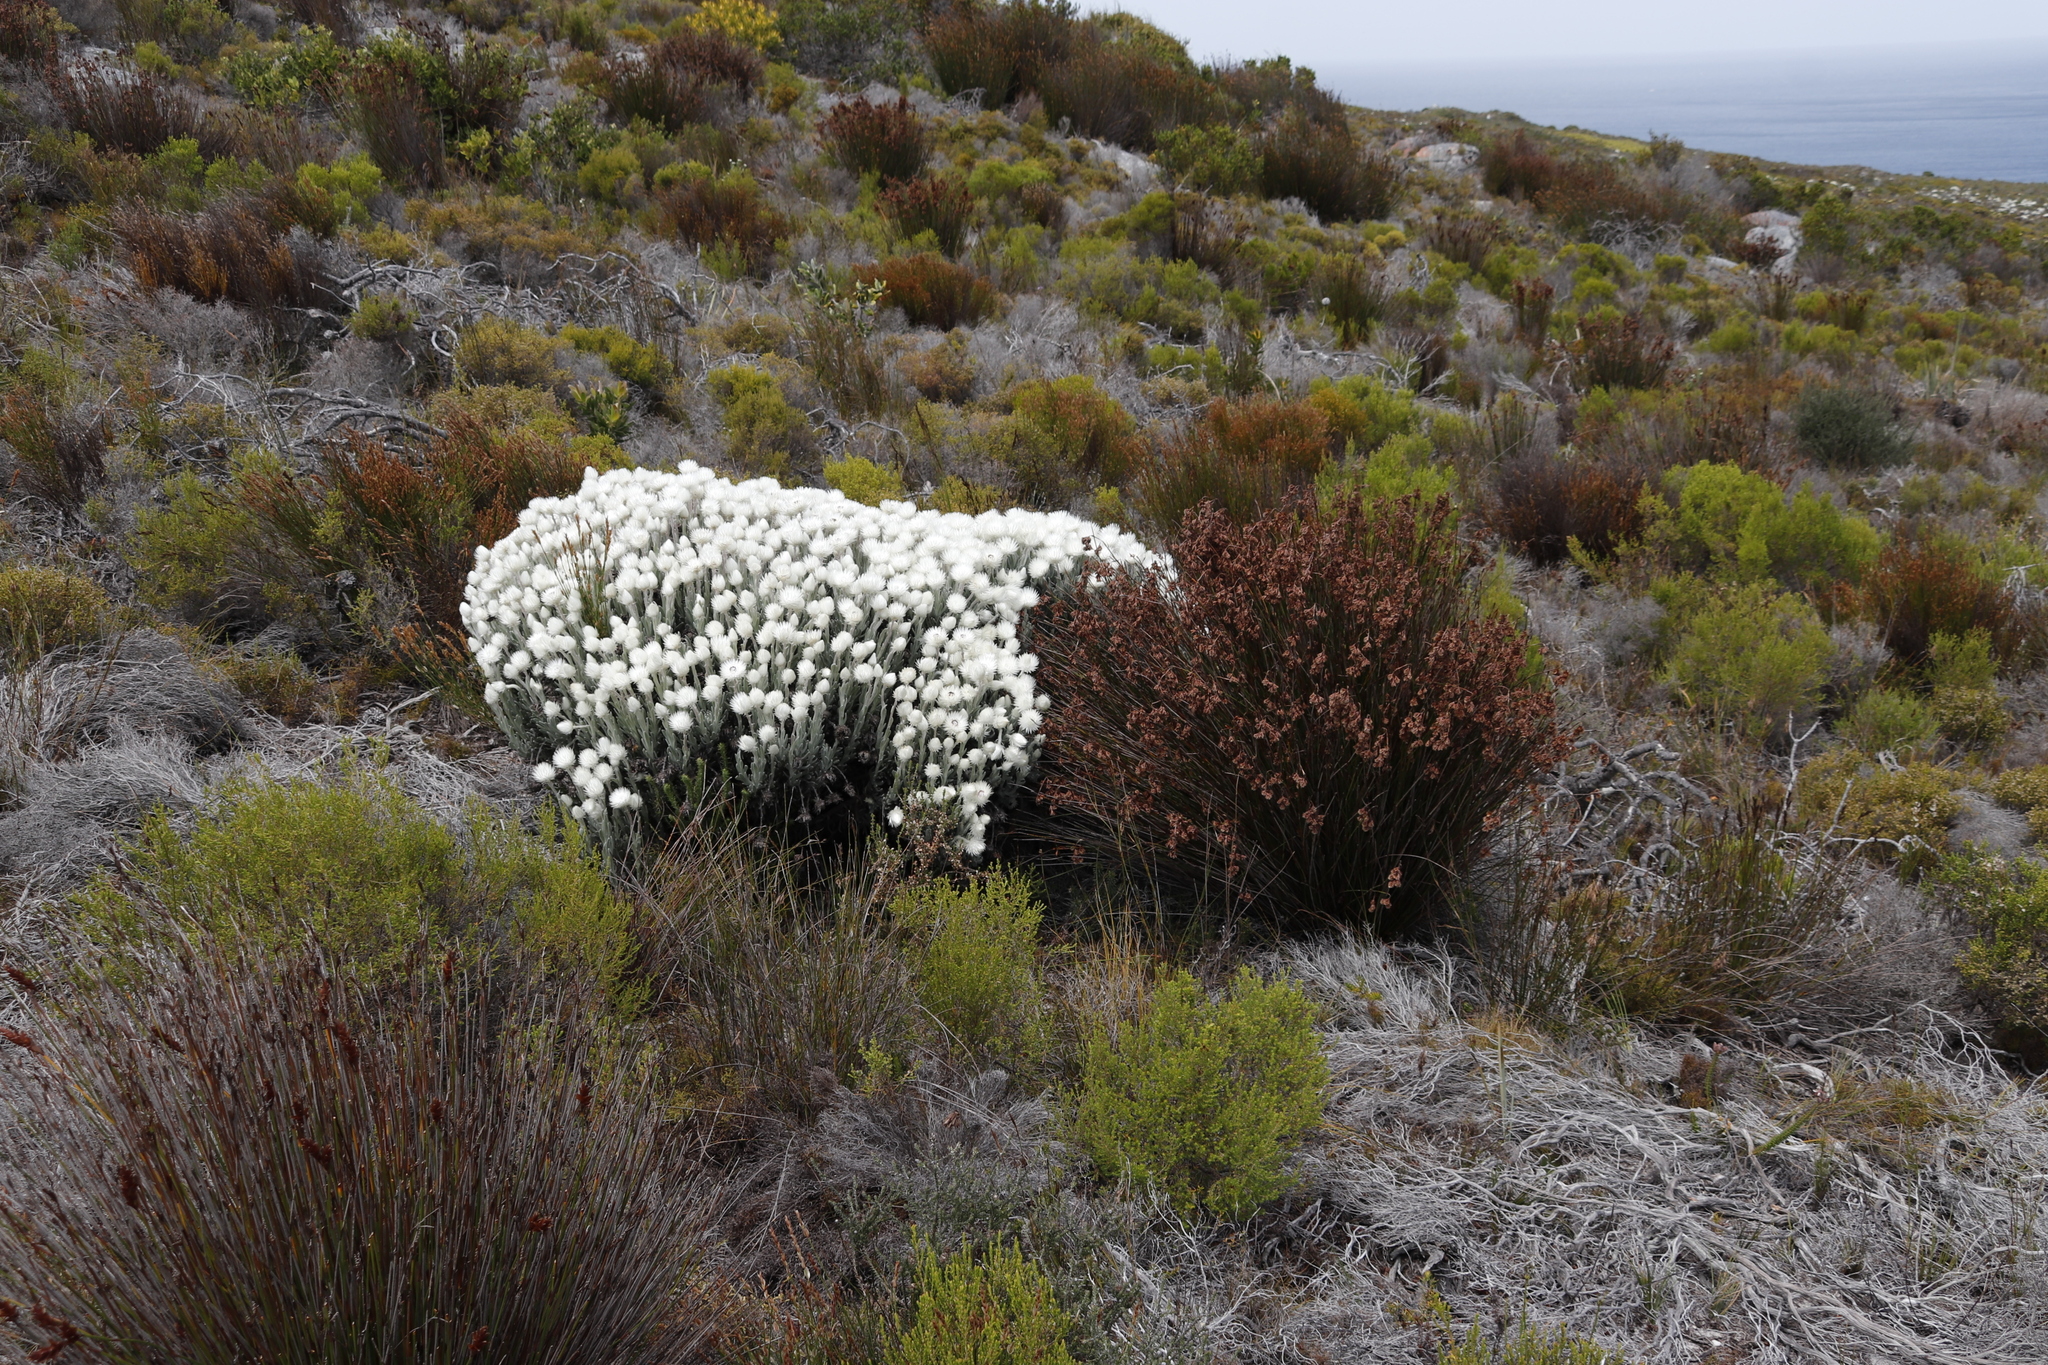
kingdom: Plantae
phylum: Tracheophyta
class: Magnoliopsida
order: Asterales
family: Asteraceae
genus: Syncarpha
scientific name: Syncarpha vestita
